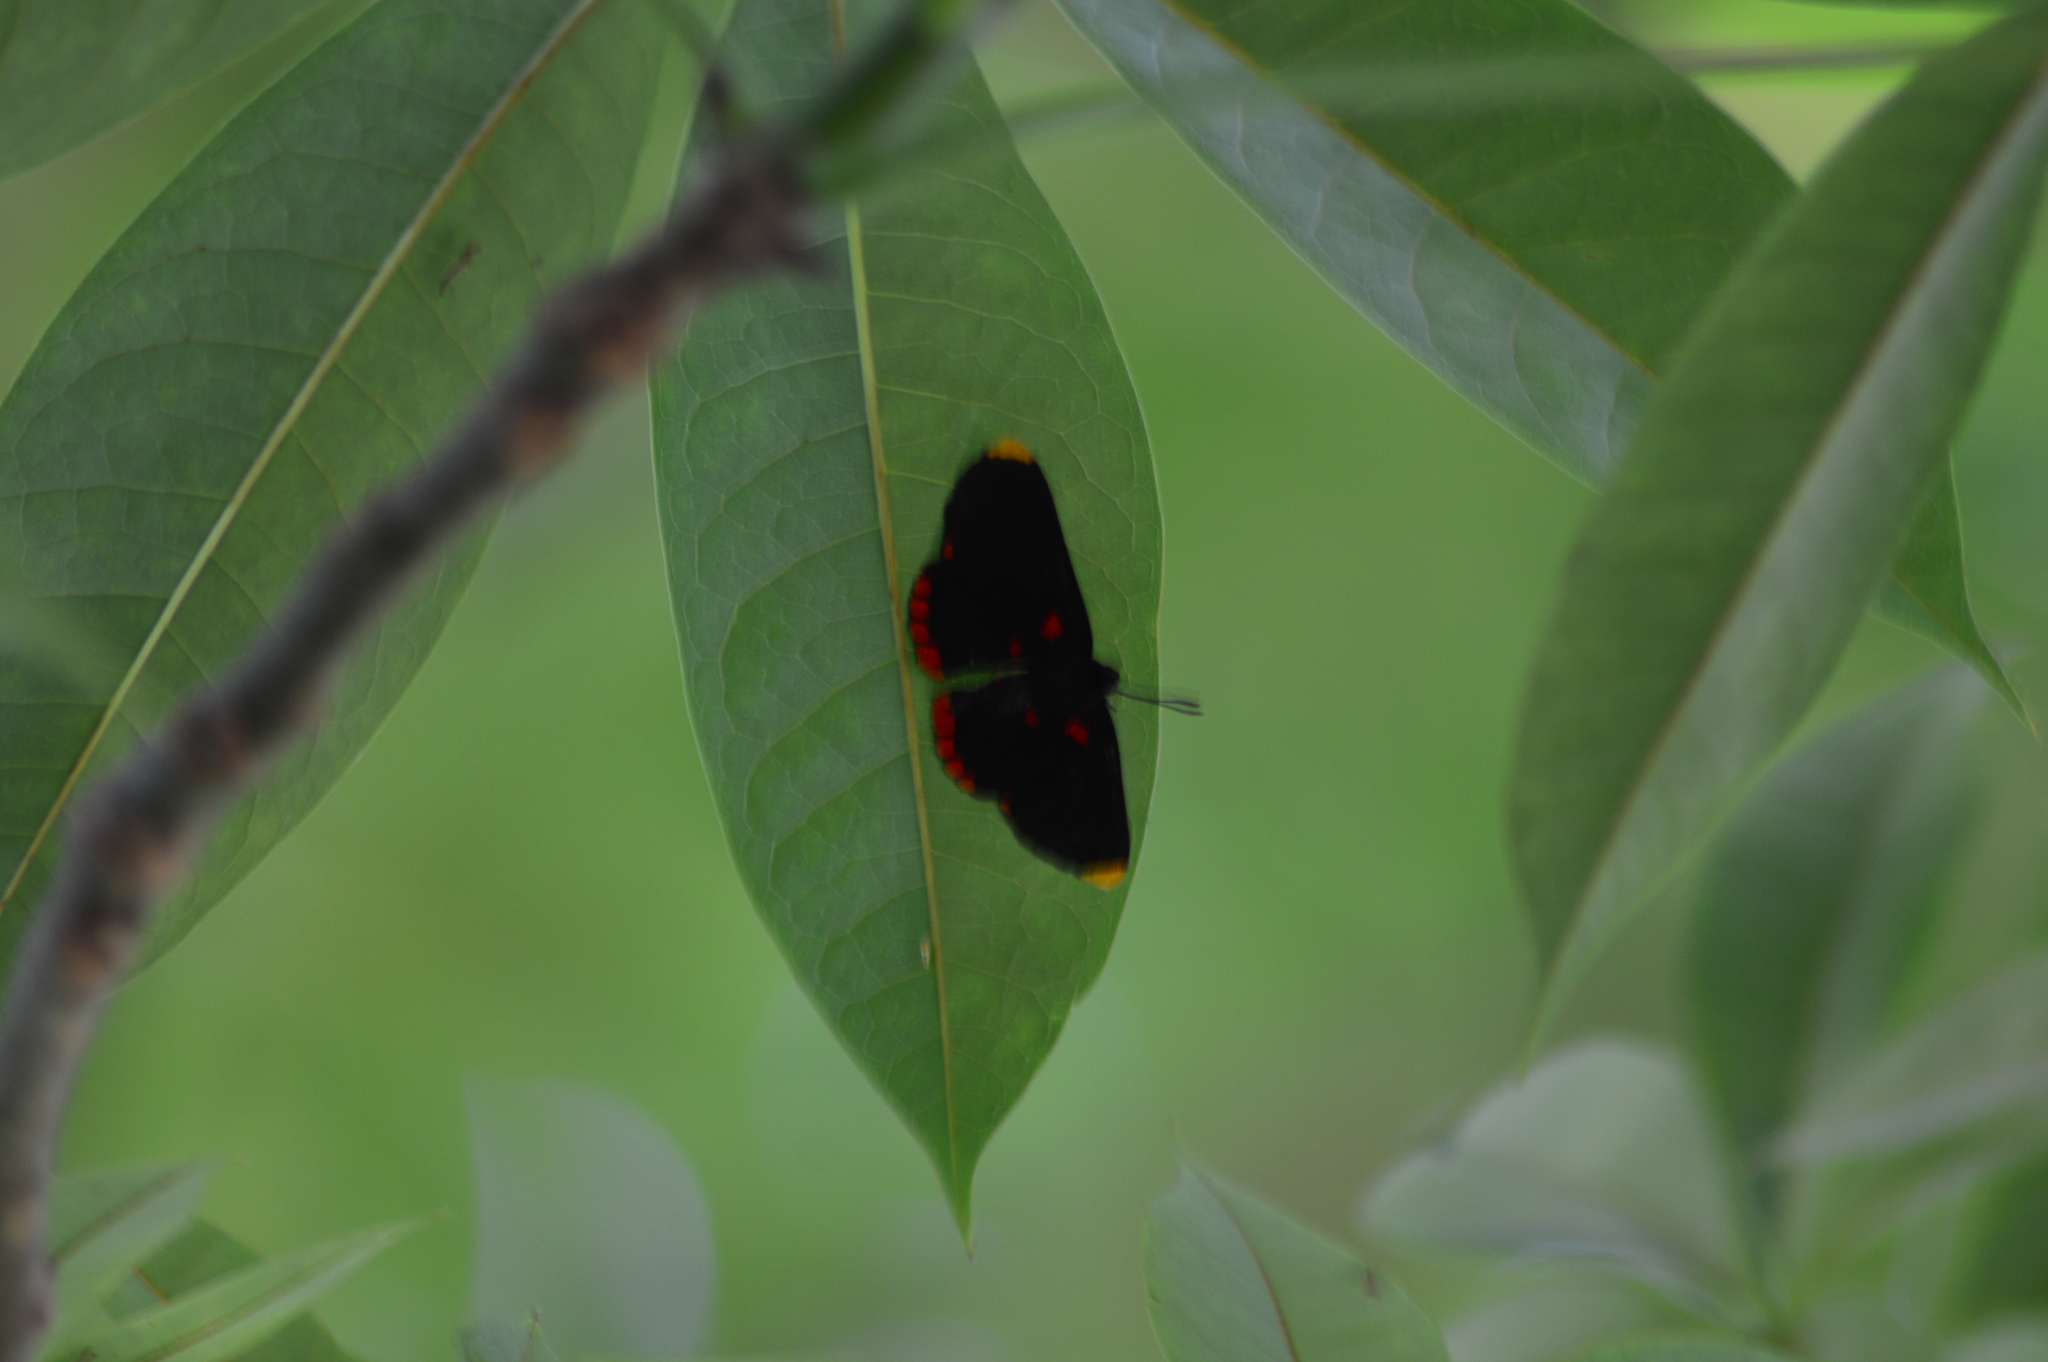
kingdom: Animalia
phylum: Arthropoda
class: Insecta
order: Lepidoptera
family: Lycaenidae
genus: Melanis
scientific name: Melanis pixe
